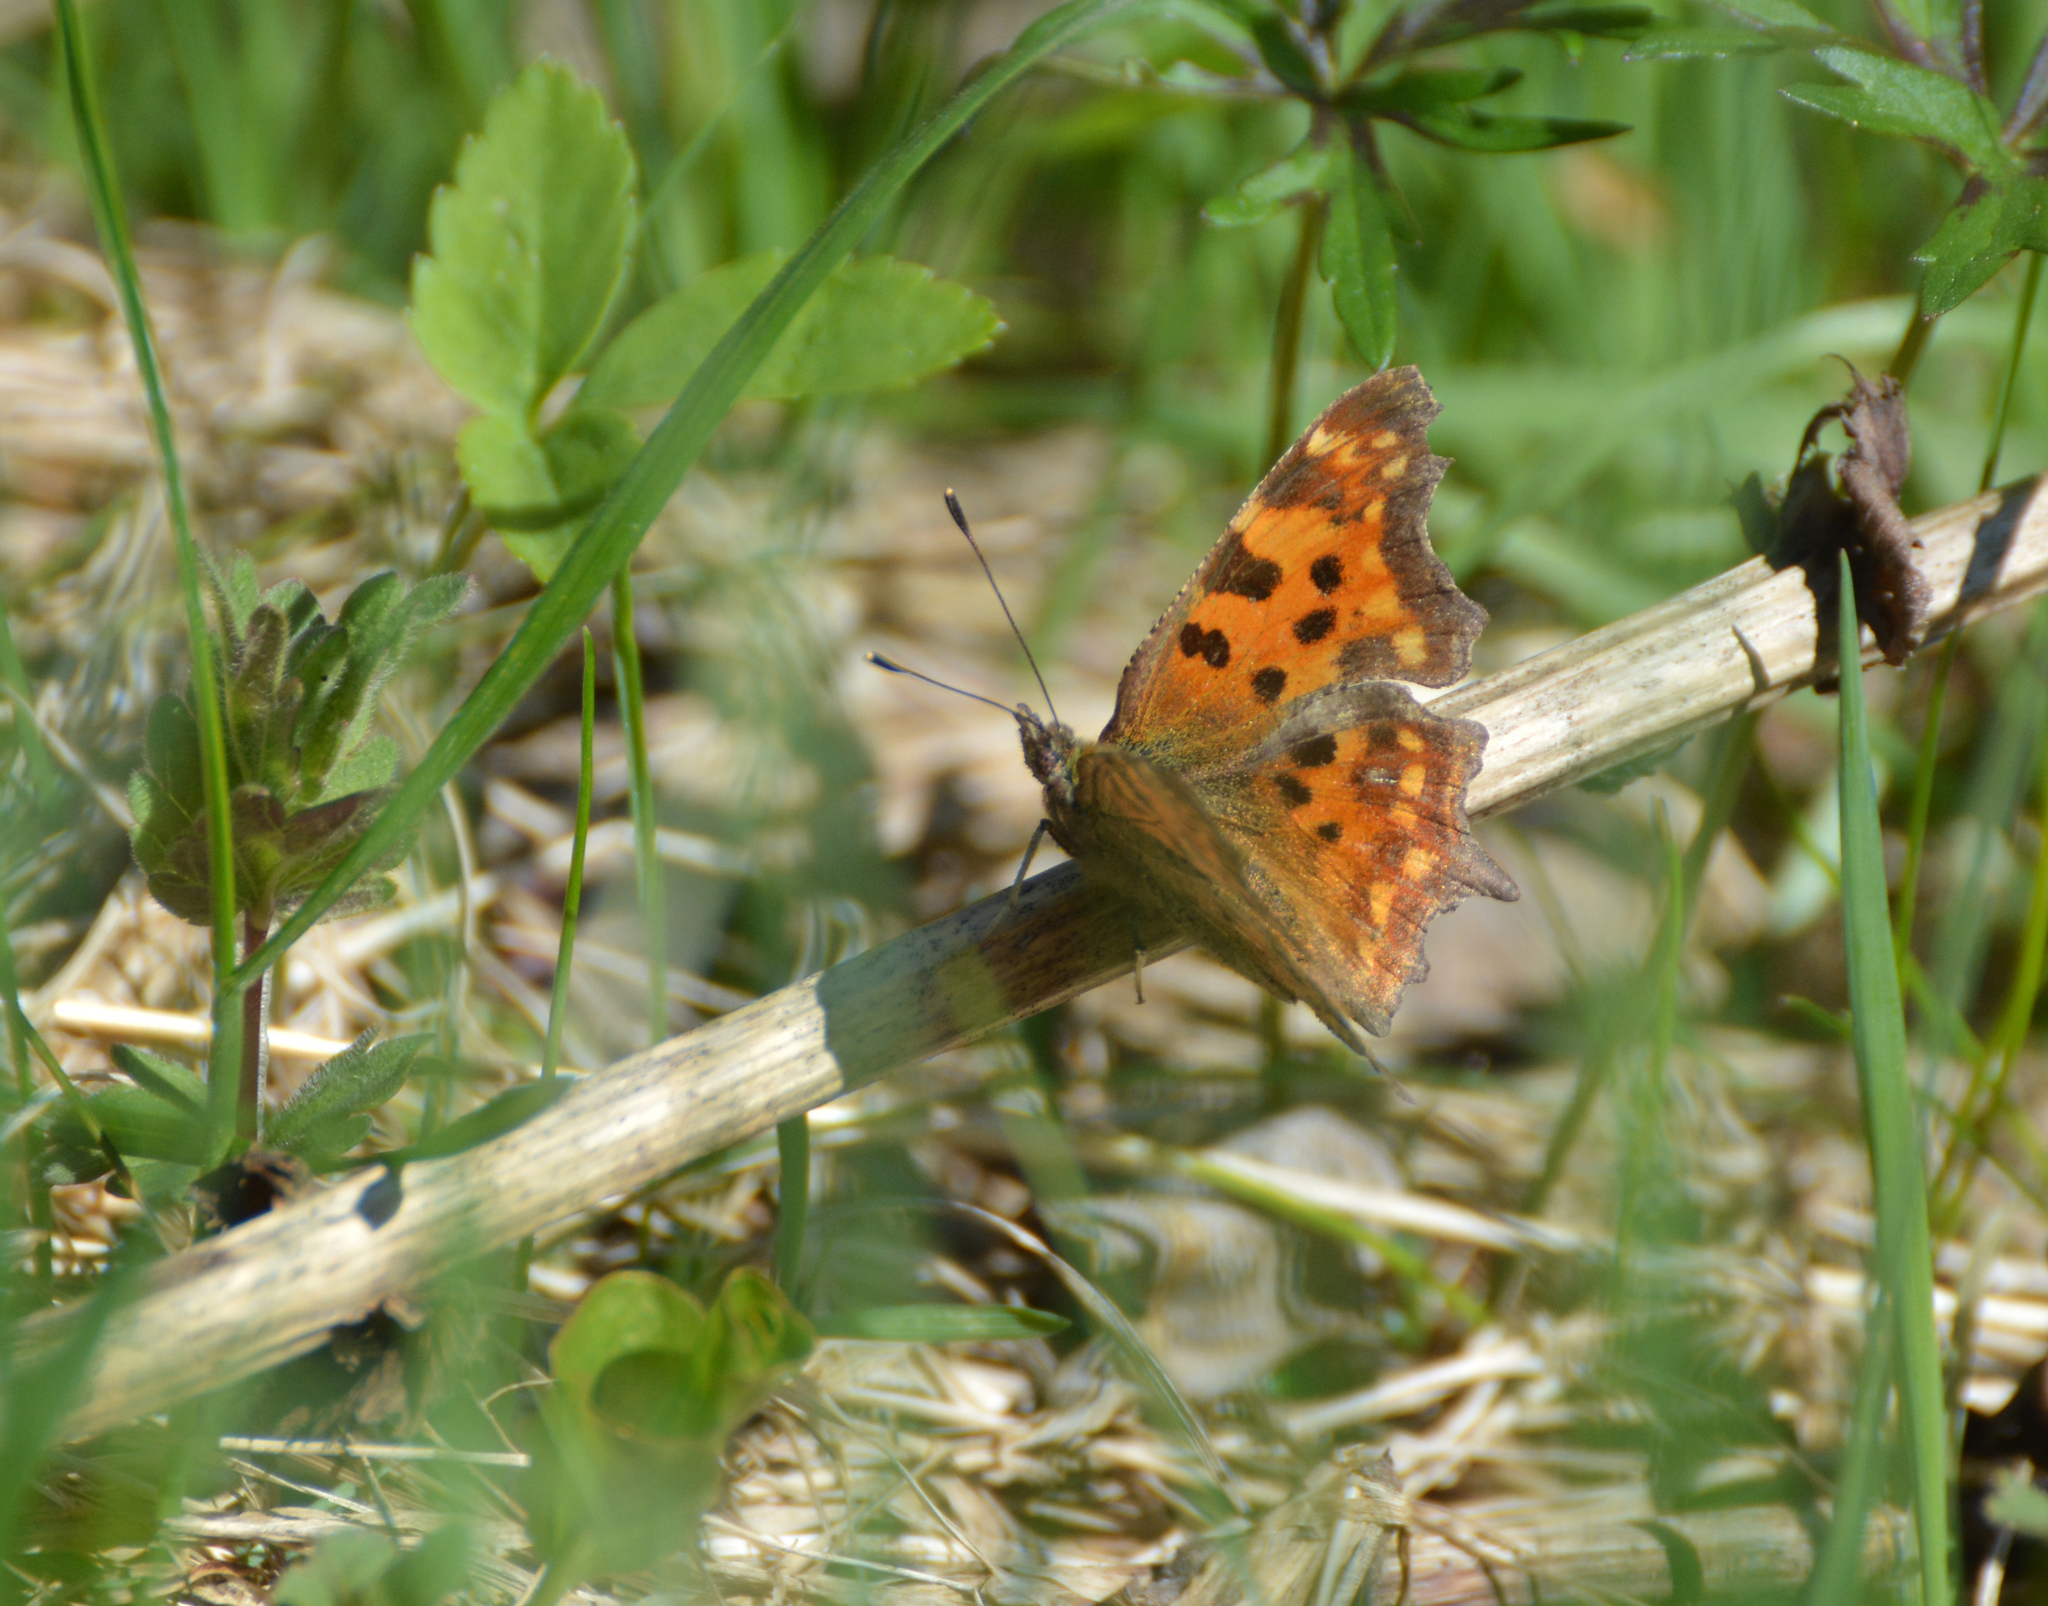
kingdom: Animalia
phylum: Arthropoda
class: Insecta
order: Lepidoptera
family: Nymphalidae
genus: Polygonia
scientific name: Polygonia c-album
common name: Comma
